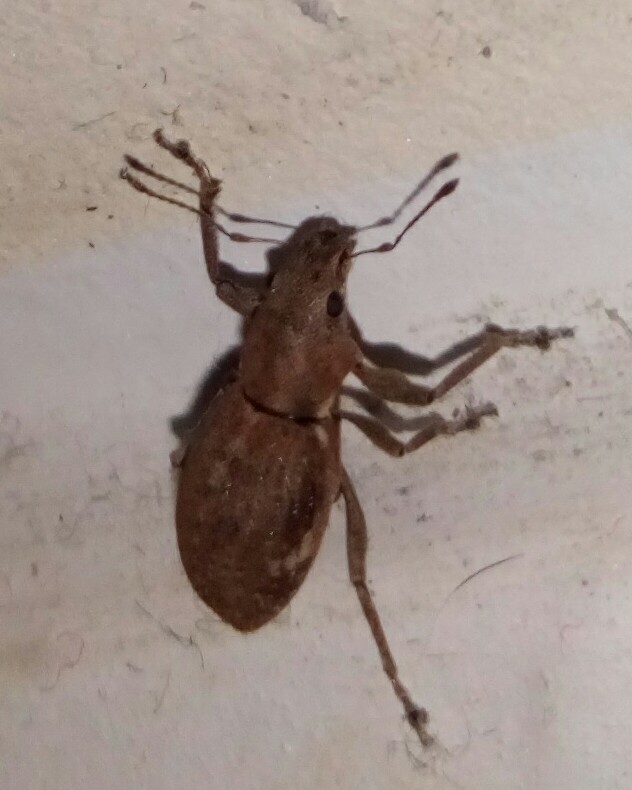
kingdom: Animalia
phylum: Arthropoda
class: Insecta
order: Coleoptera
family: Curculionidae
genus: Naupactus
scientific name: Naupactus cervinus
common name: Fuller rose beetle
